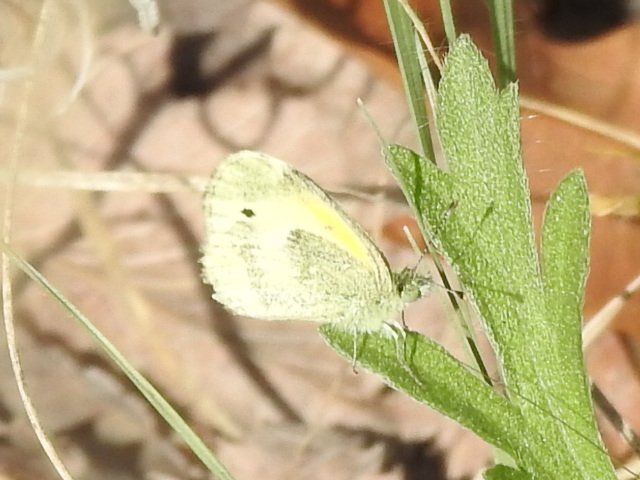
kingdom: Animalia
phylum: Arthropoda
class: Insecta
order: Lepidoptera
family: Pieridae
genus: Nathalis
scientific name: Nathalis iole
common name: Dainty sulphur
